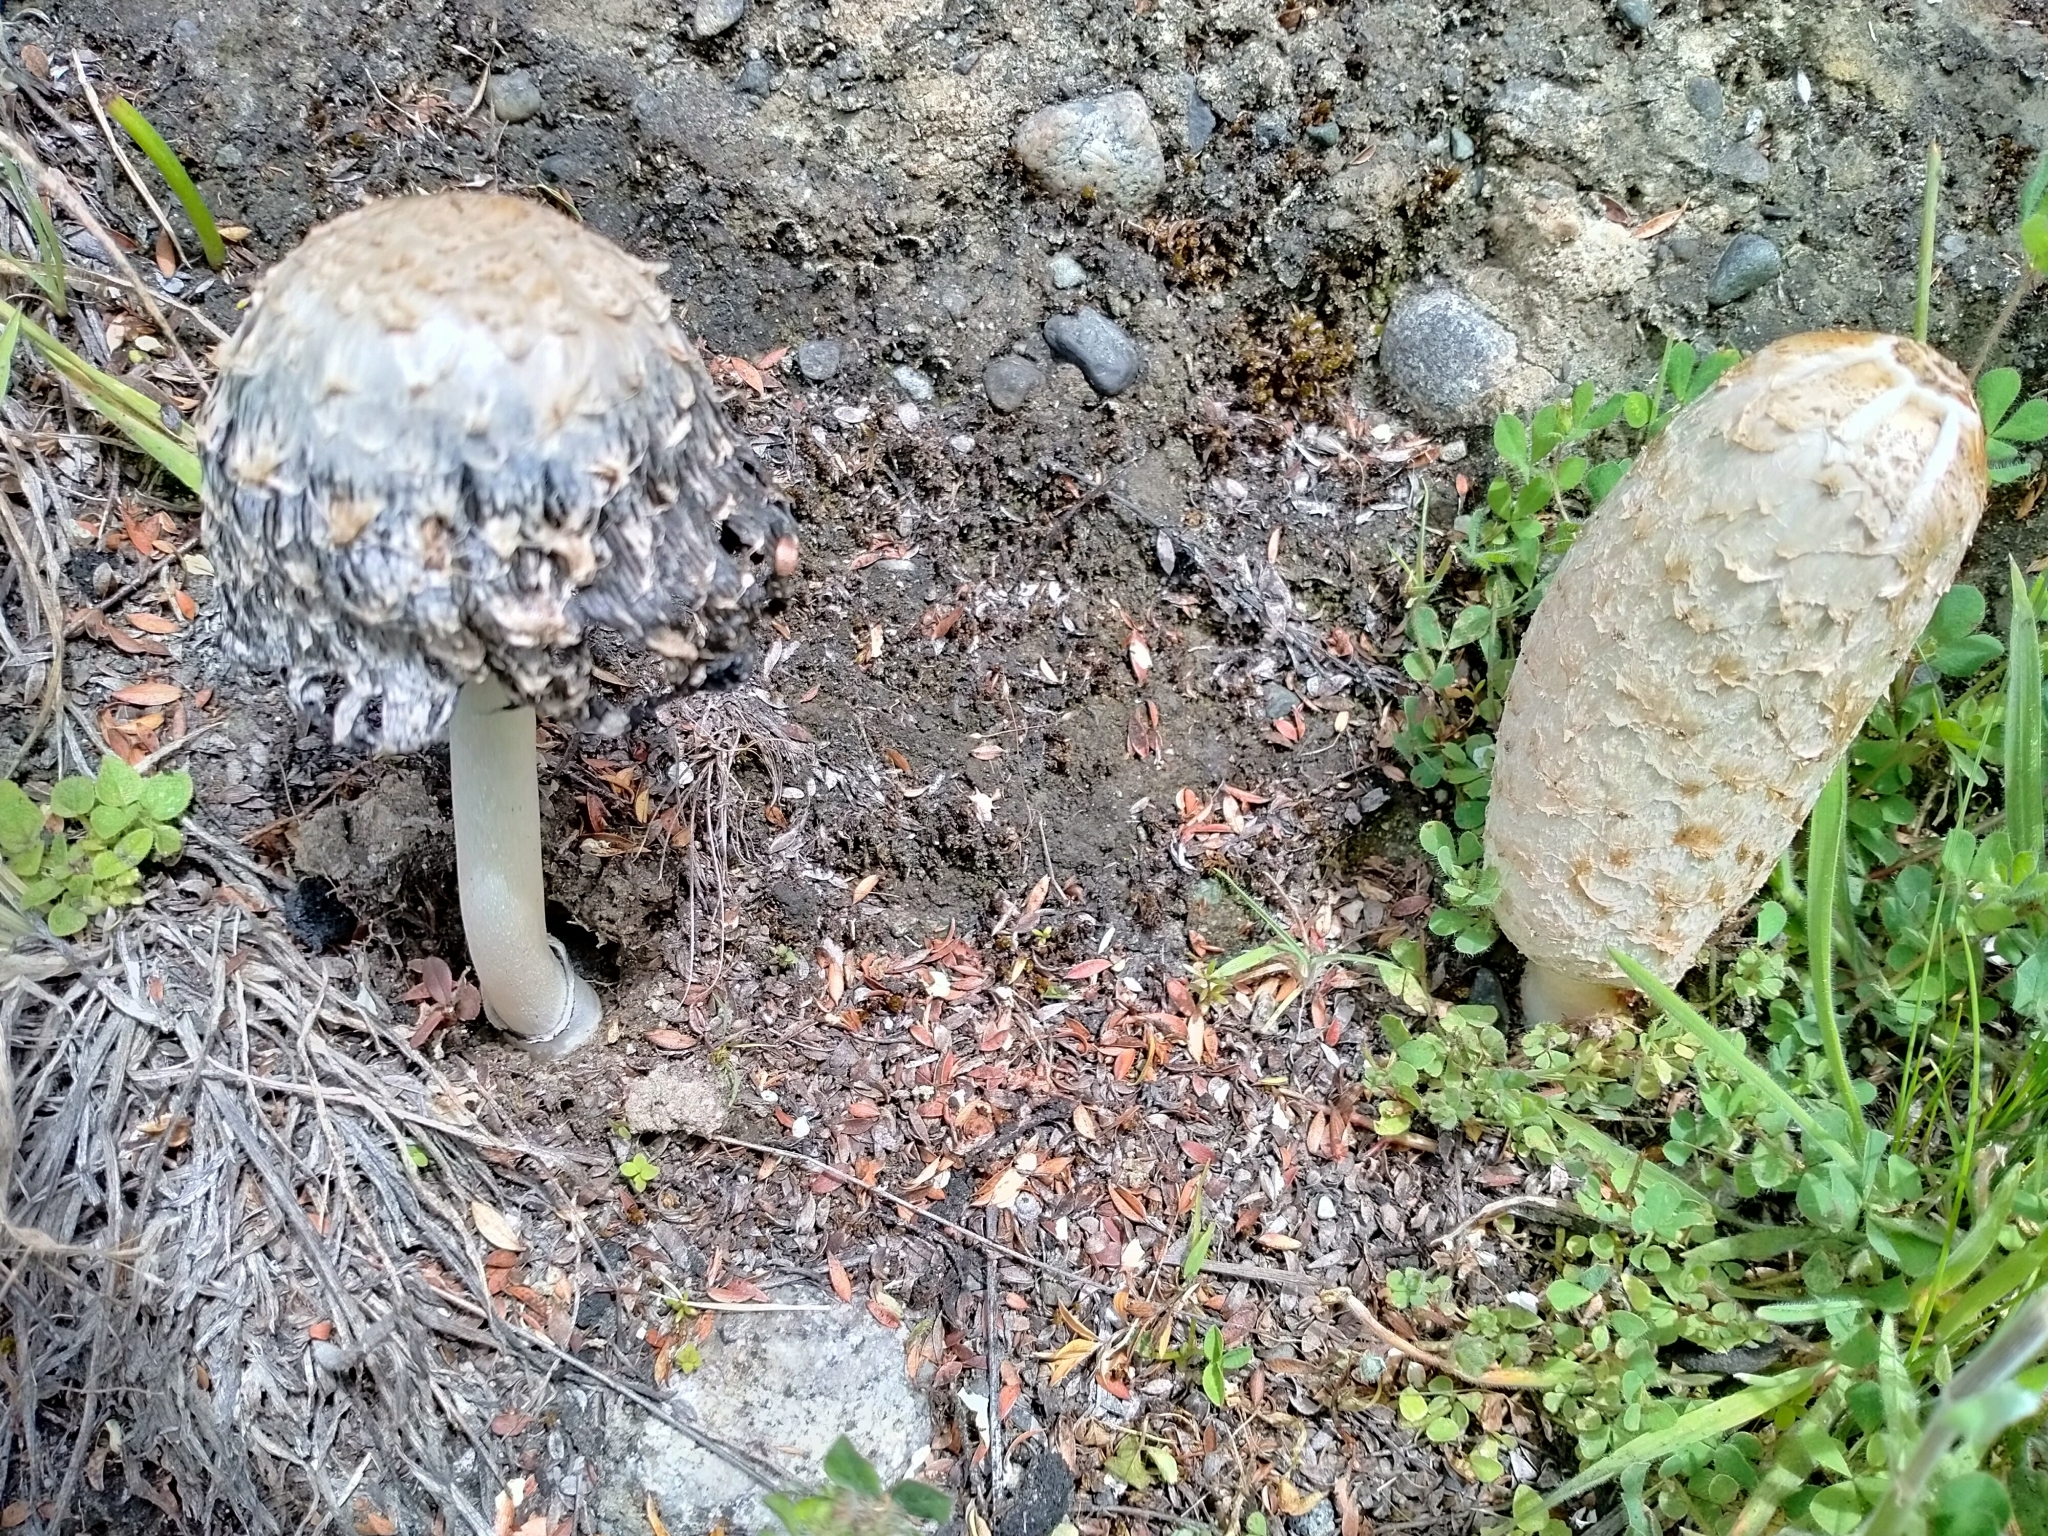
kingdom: Fungi
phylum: Basidiomycota
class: Agaricomycetes
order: Agaricales
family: Agaricaceae
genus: Coprinus
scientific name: Coprinus comatus
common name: Lawyer's wig
